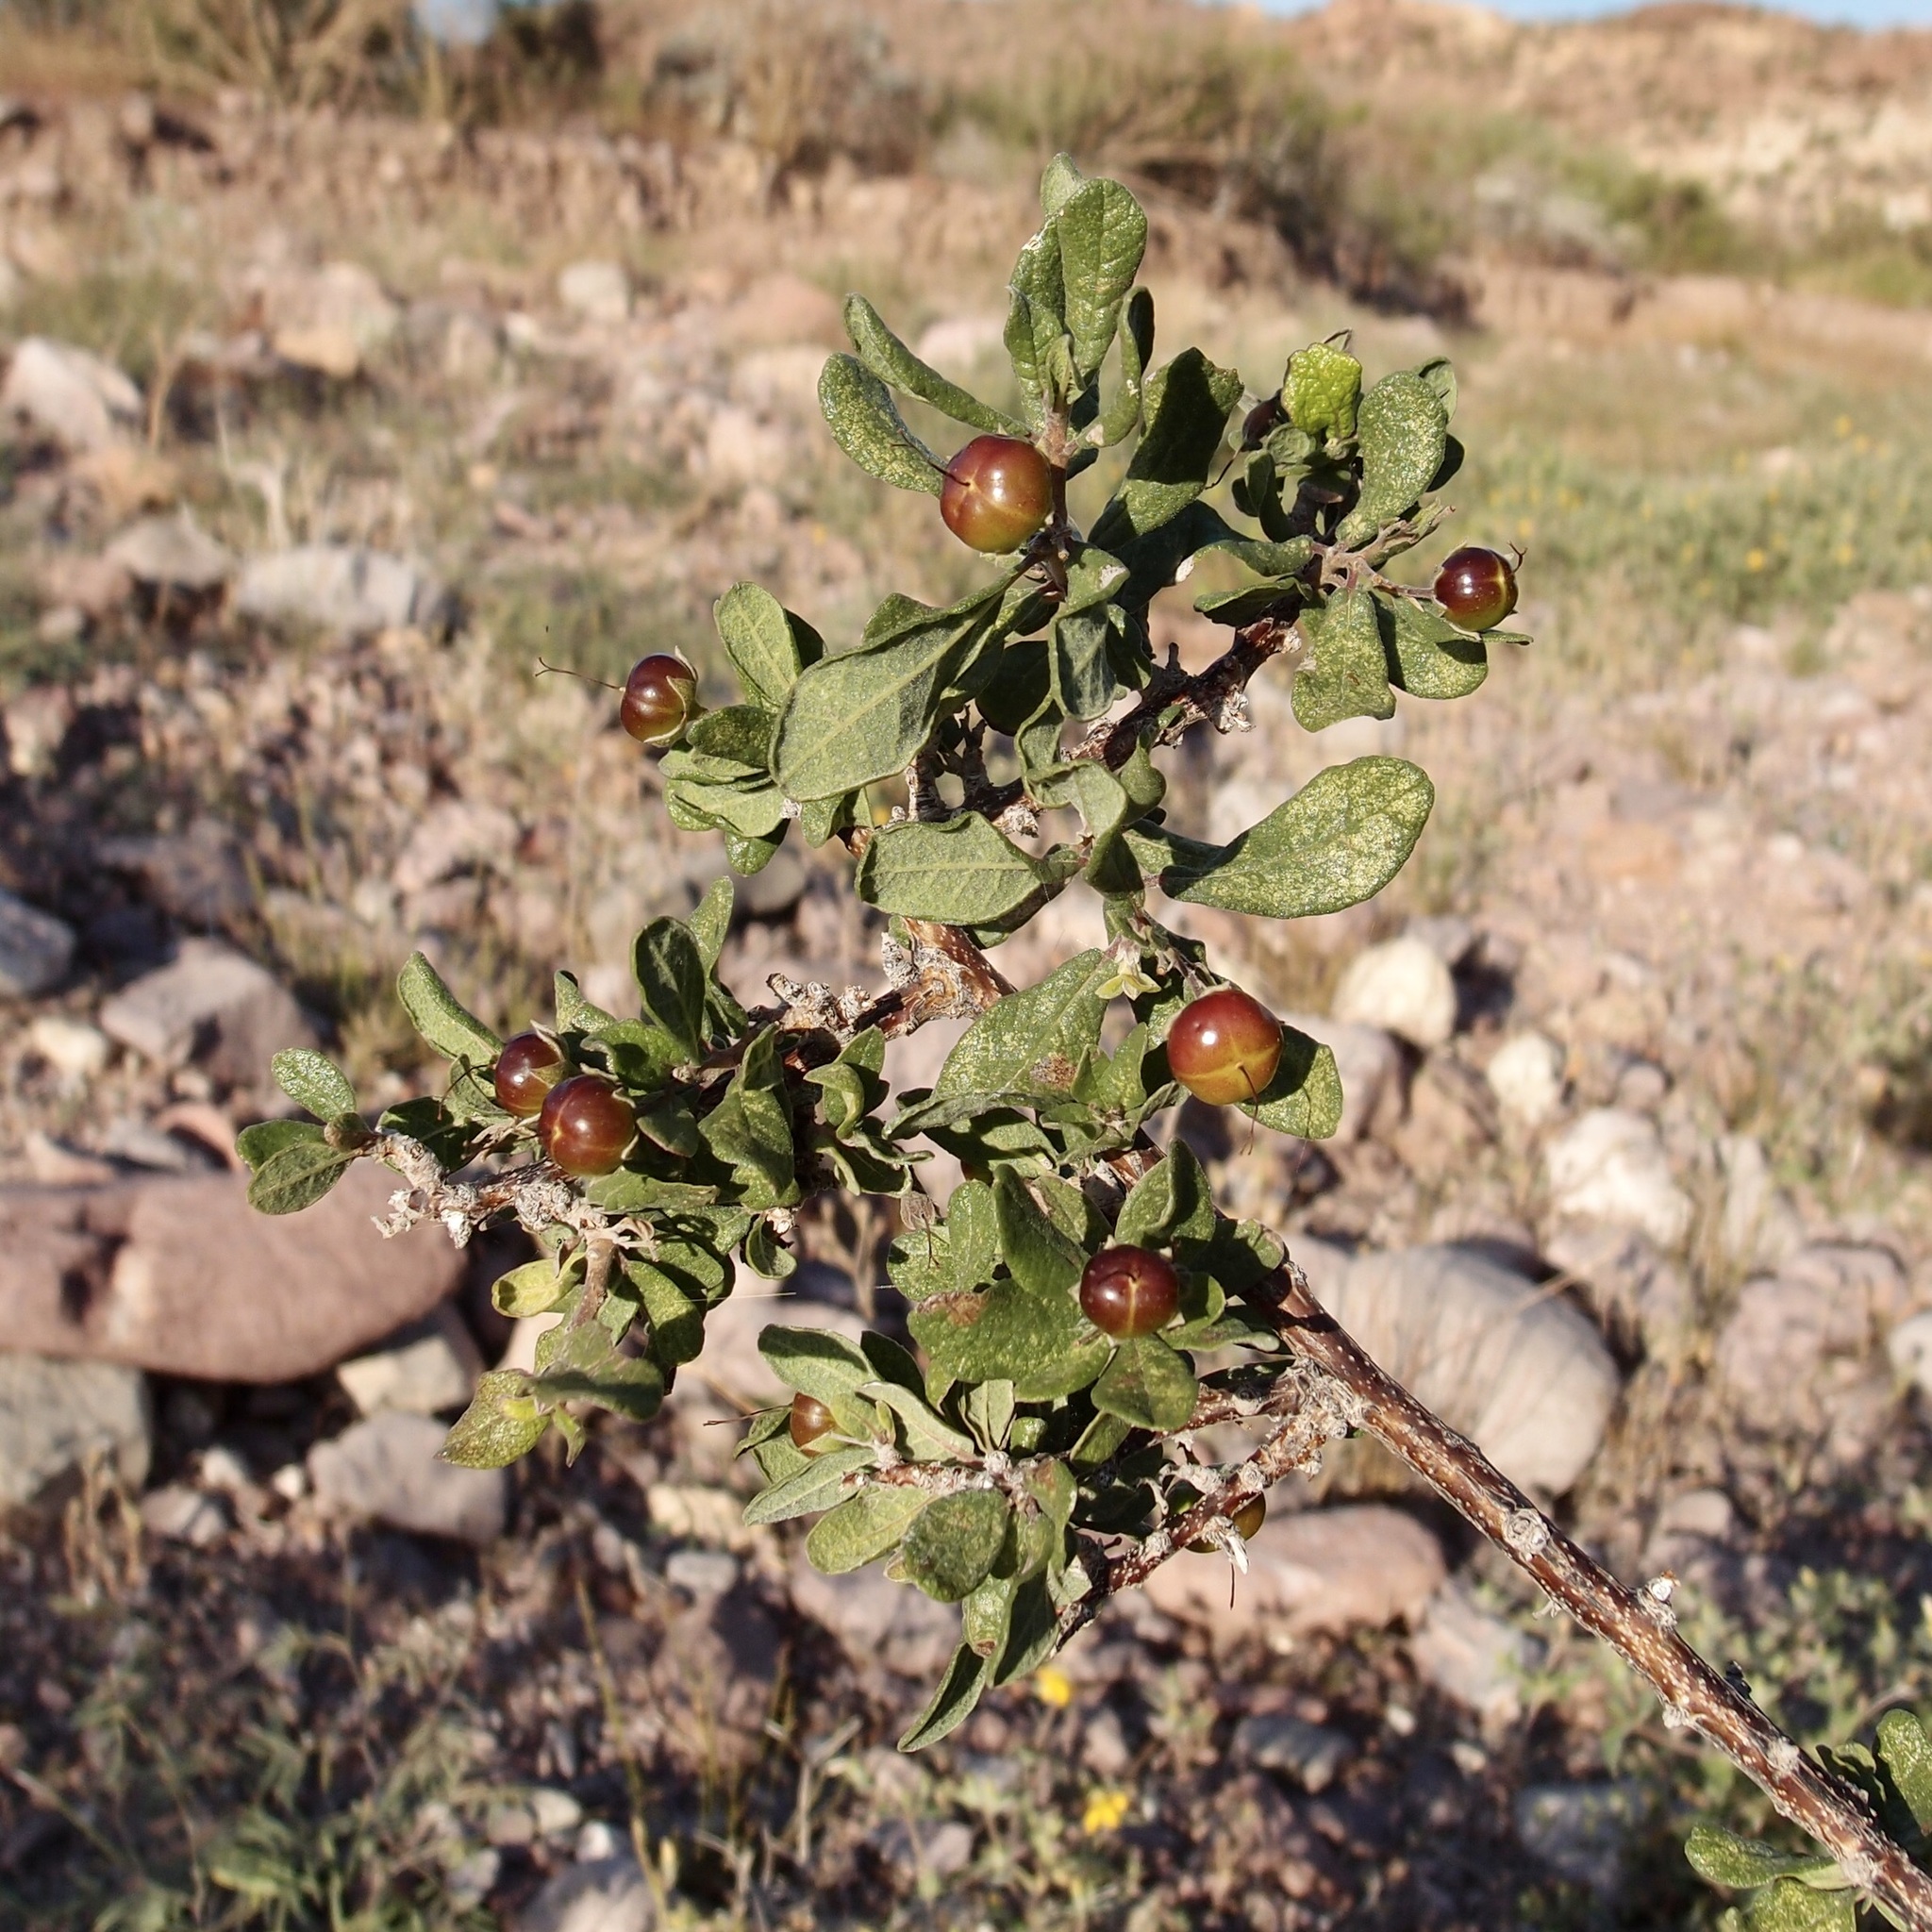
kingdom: Plantae
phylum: Tracheophyta
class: Magnoliopsida
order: Boraginales
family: Ehretiaceae
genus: Bourreria
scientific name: Bourreria sonorae
